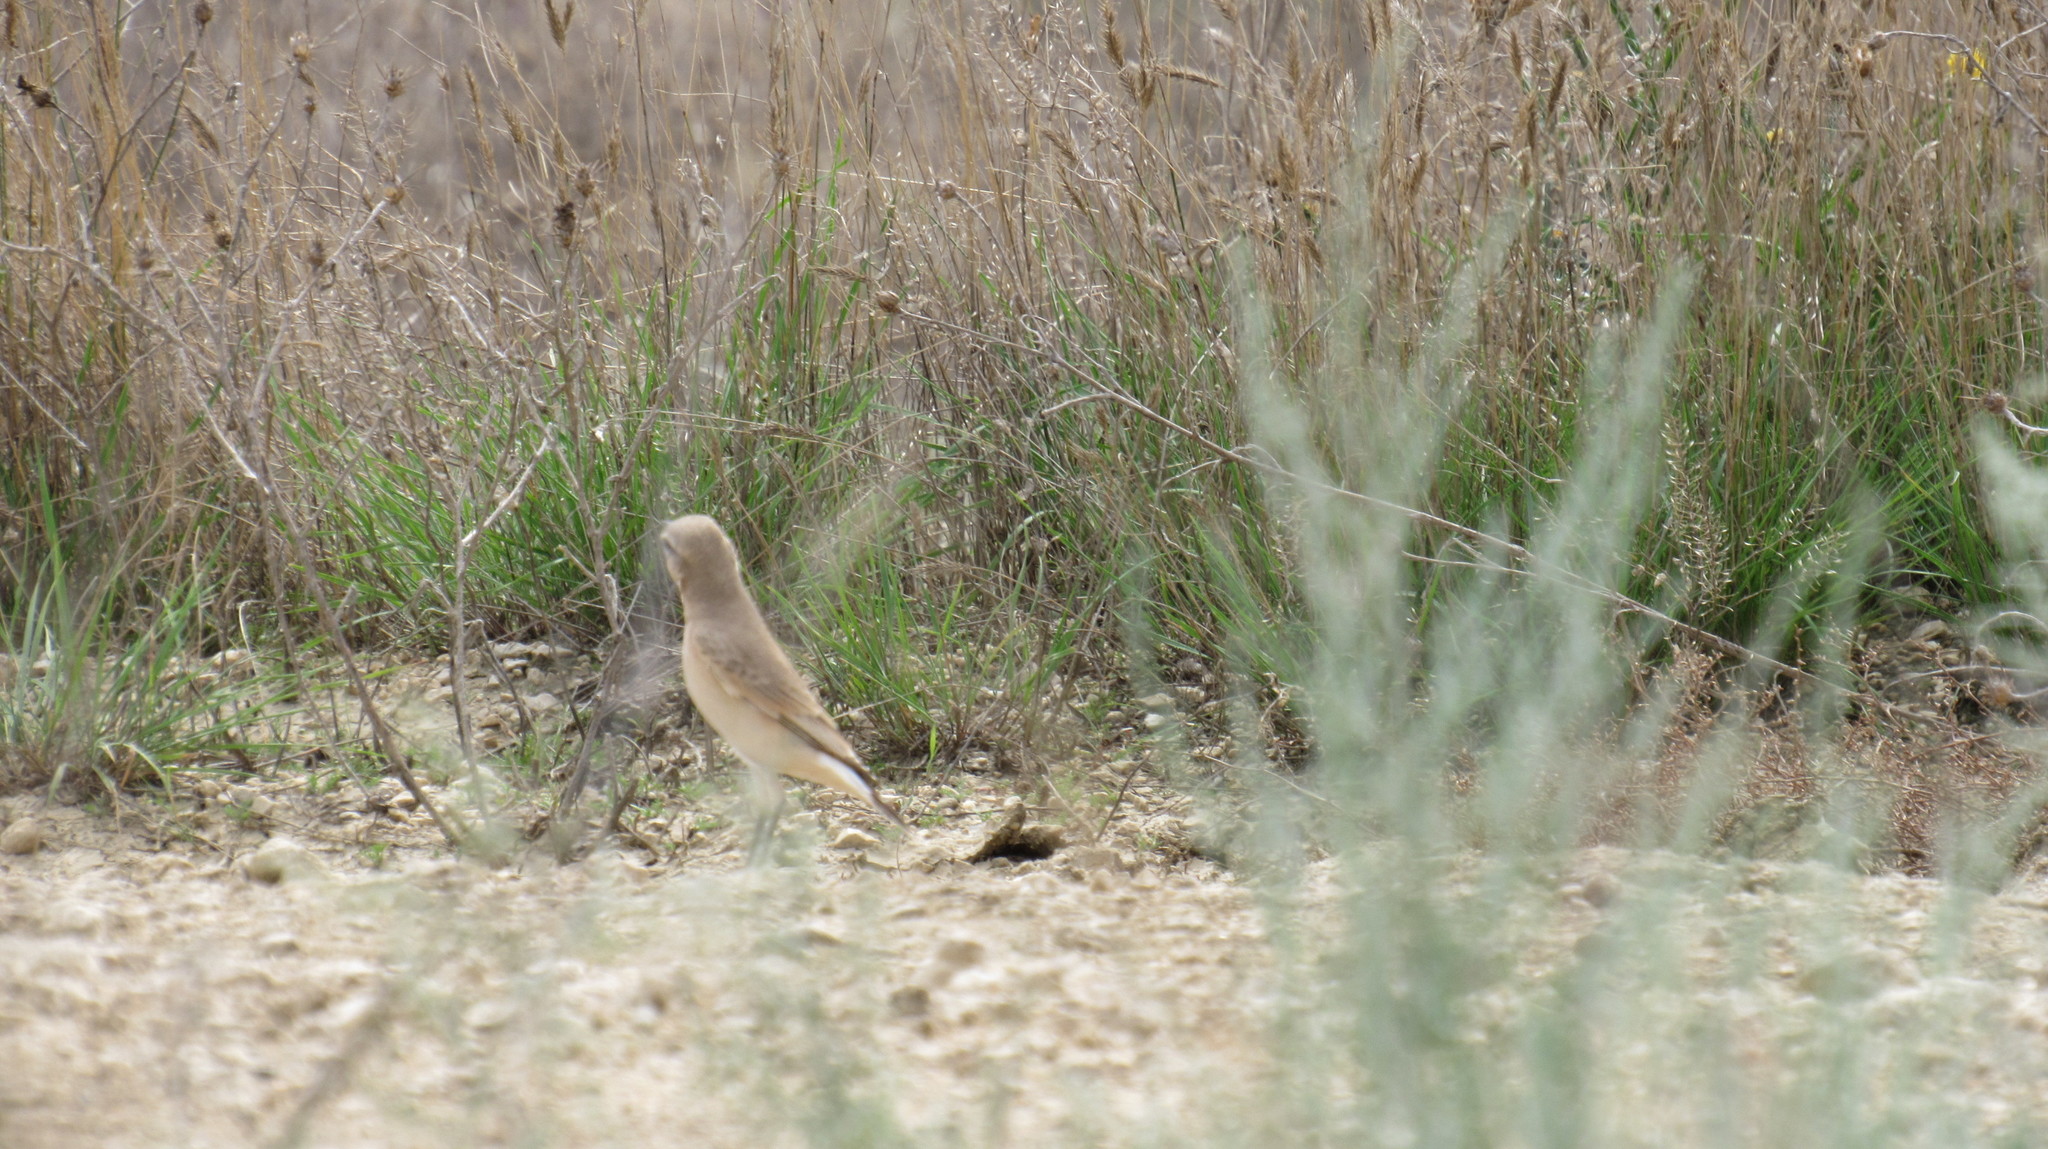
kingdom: Animalia
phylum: Chordata
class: Aves
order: Passeriformes
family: Muscicapidae
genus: Oenanthe
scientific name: Oenanthe isabellina
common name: Isabelline wheatear
